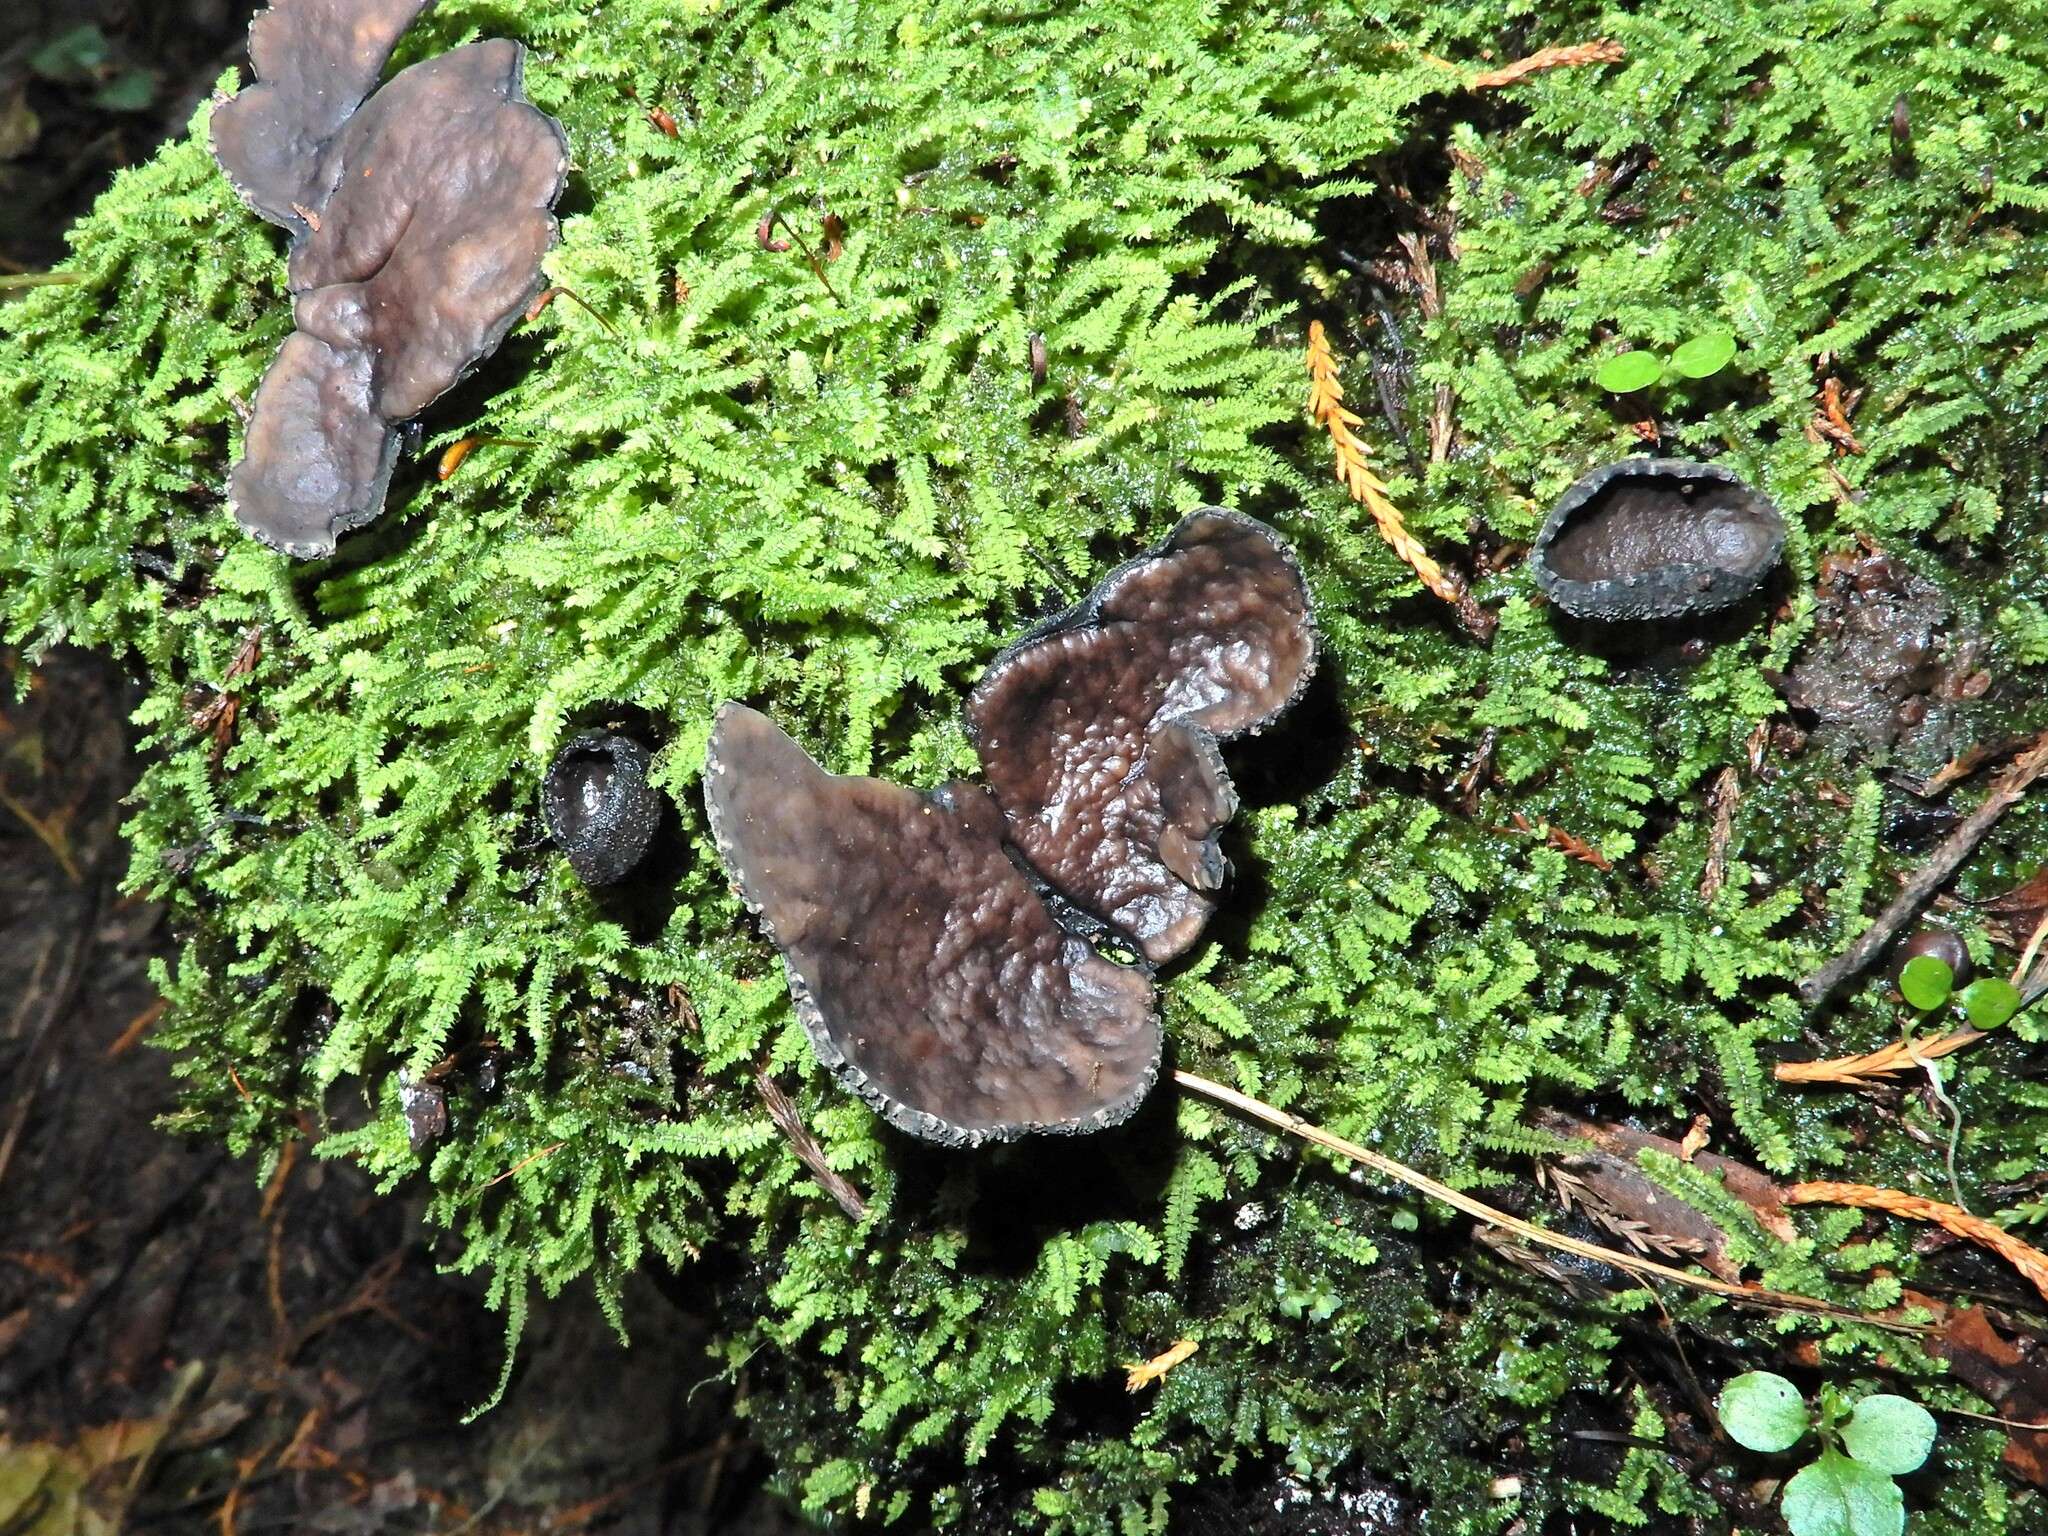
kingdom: Fungi
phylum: Ascomycota
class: Pezizomycetes
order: Pezizales
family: Sarcosomataceae
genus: Plectania
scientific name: Plectania campylospora
